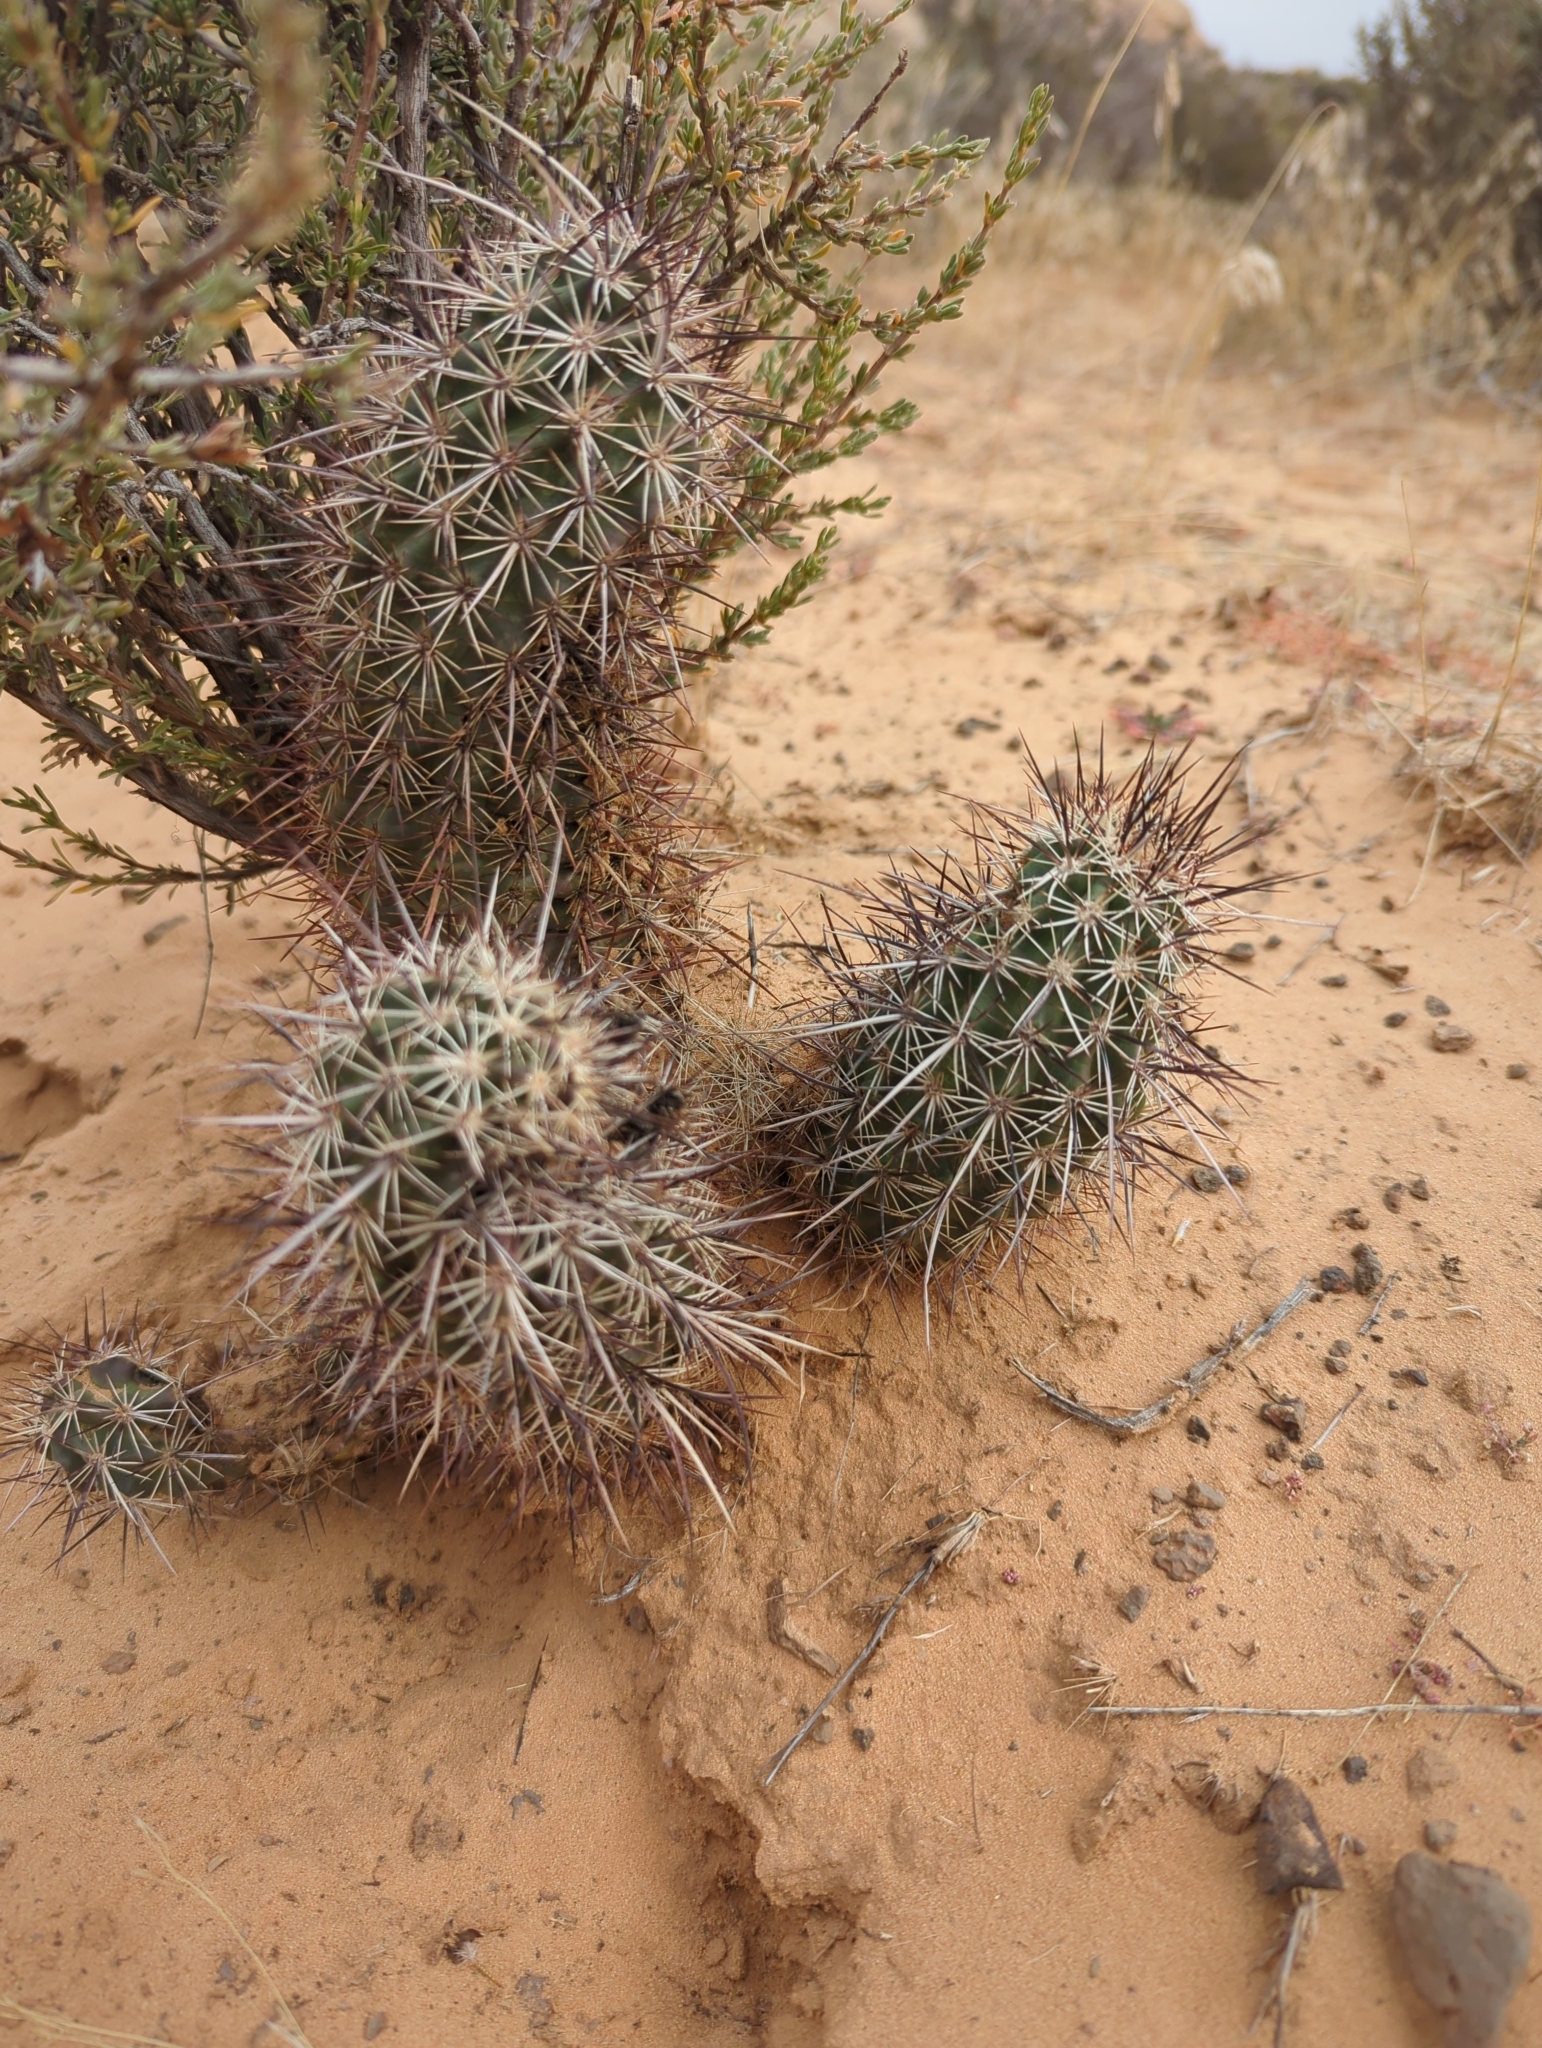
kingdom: Plantae
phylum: Tracheophyta
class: Magnoliopsida
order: Caryophyllales
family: Cactaceae
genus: Echinocereus
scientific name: Echinocereus relictus
